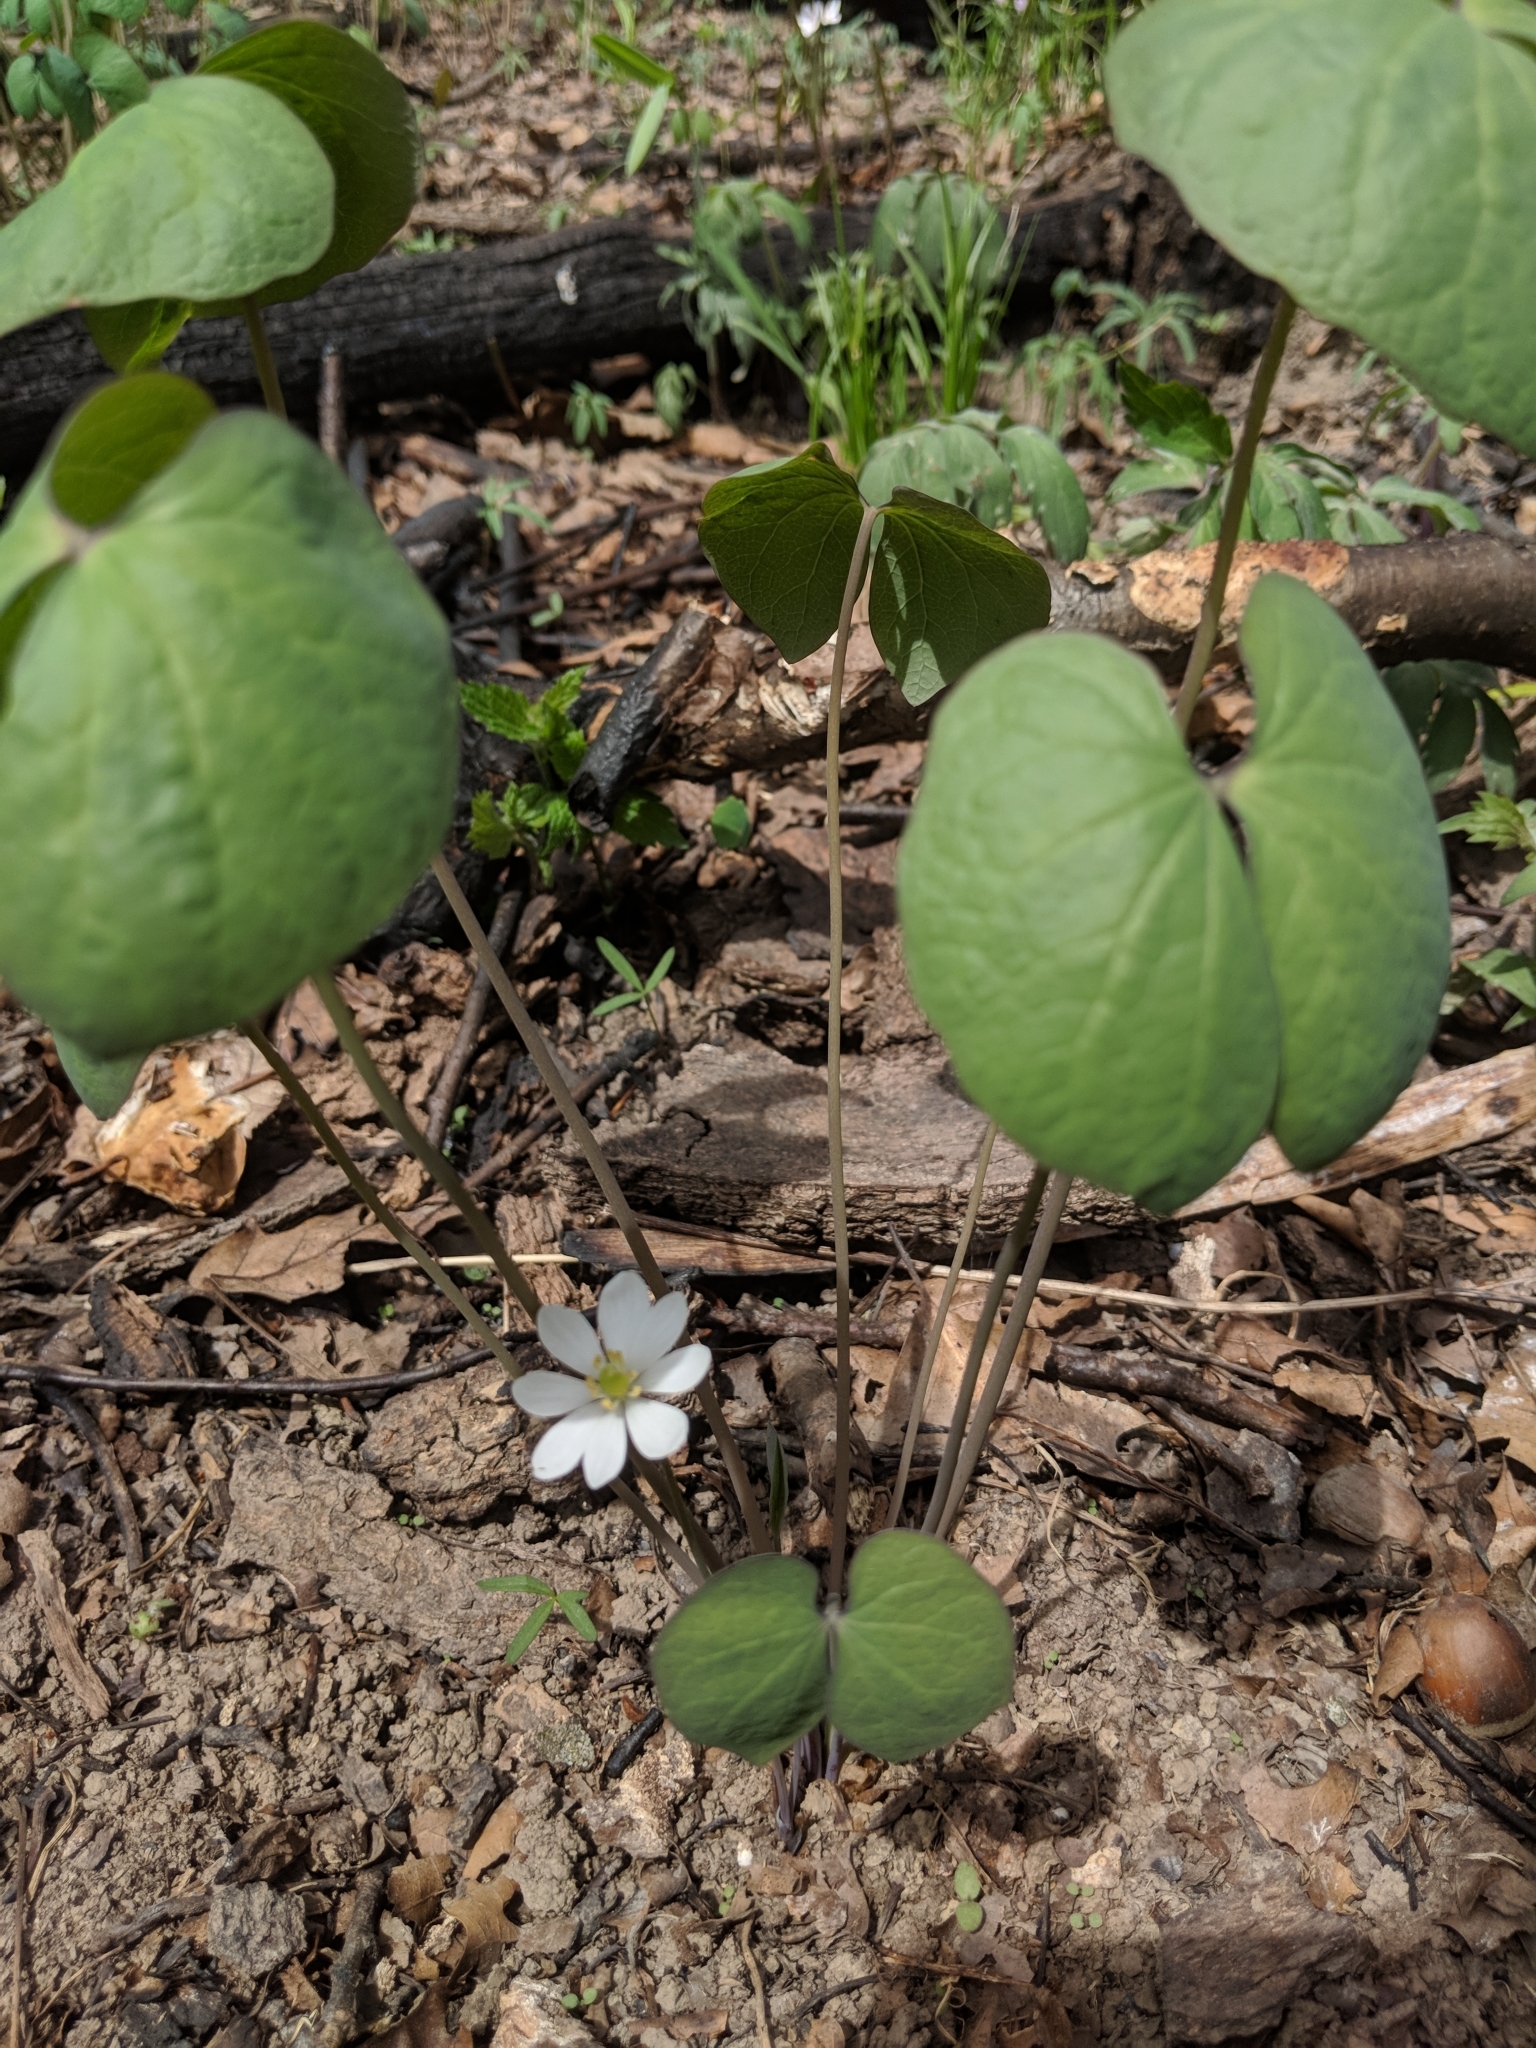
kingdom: Plantae
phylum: Tracheophyta
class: Magnoliopsida
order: Ranunculales
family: Berberidaceae
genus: Jeffersonia
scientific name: Jeffersonia diphylla
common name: Rheumatism-root
